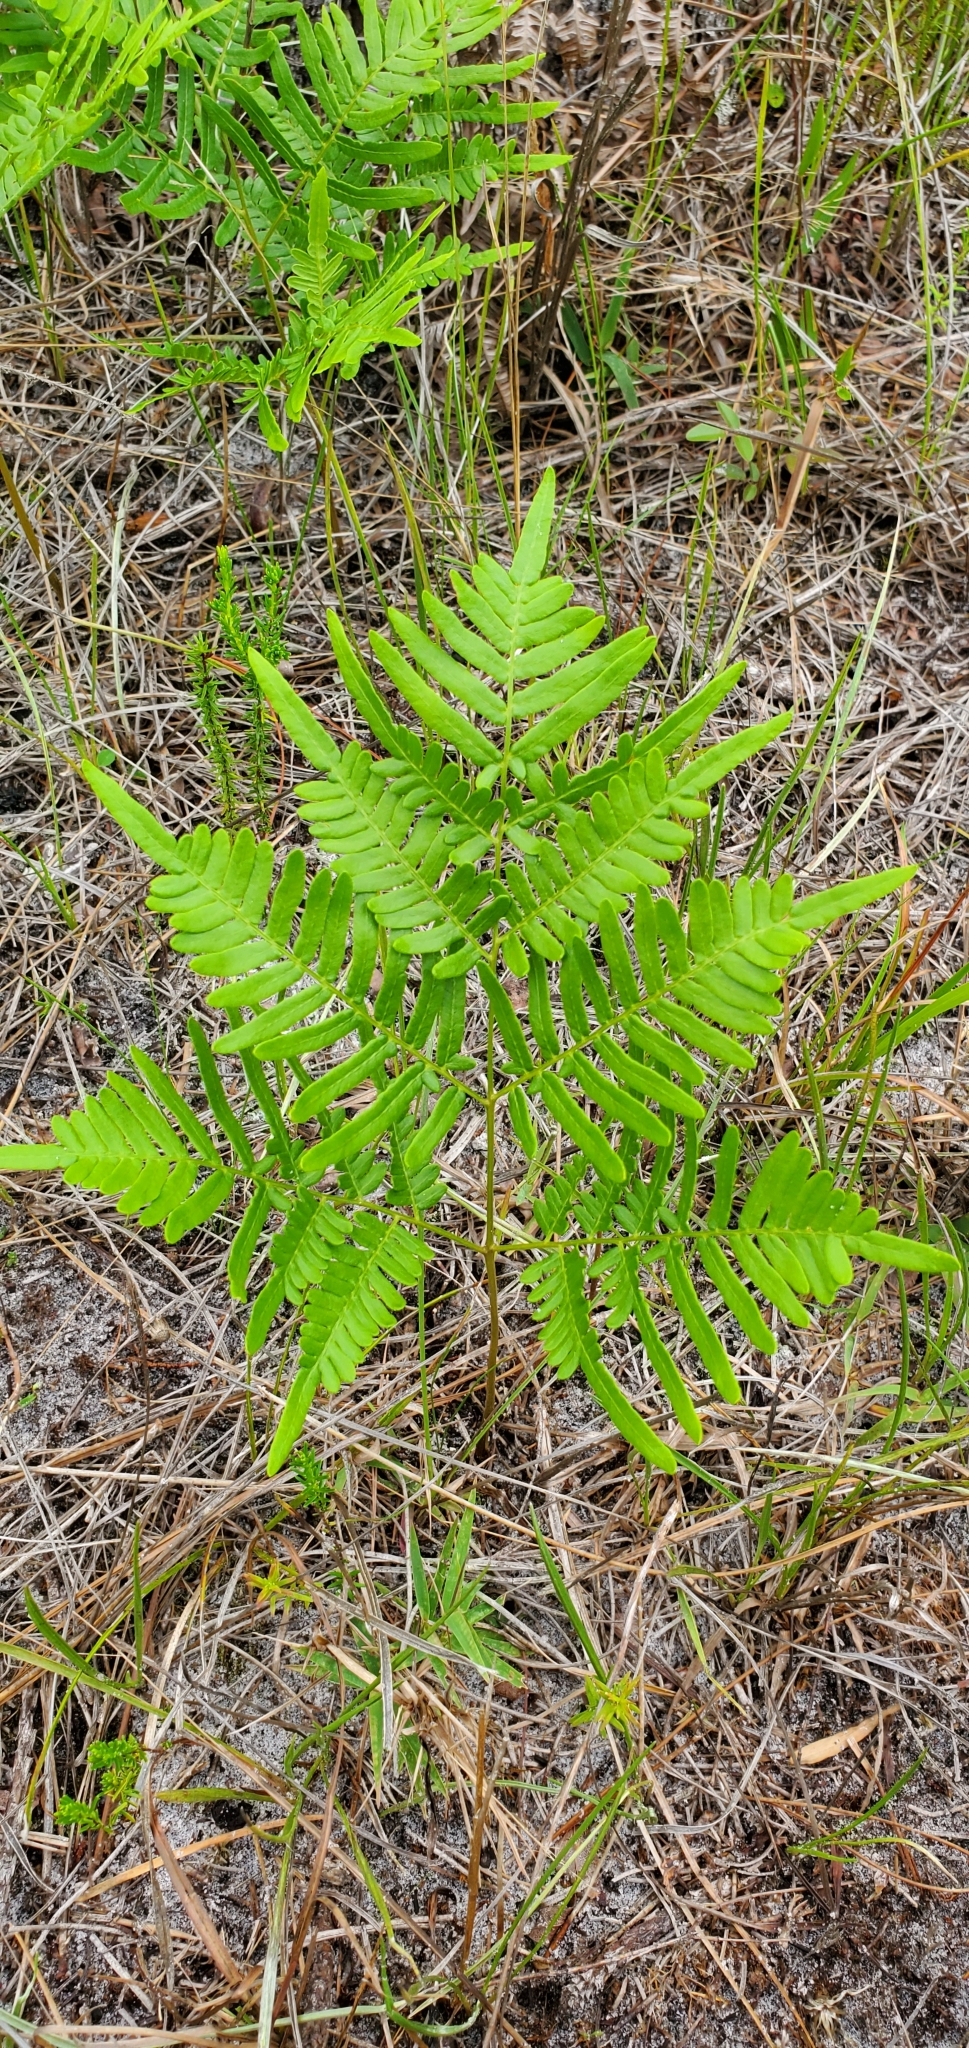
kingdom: Plantae
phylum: Tracheophyta
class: Polypodiopsida
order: Polypodiales
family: Dennstaedtiaceae
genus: Pteridium
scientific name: Pteridium aquilinum
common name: Bracken
